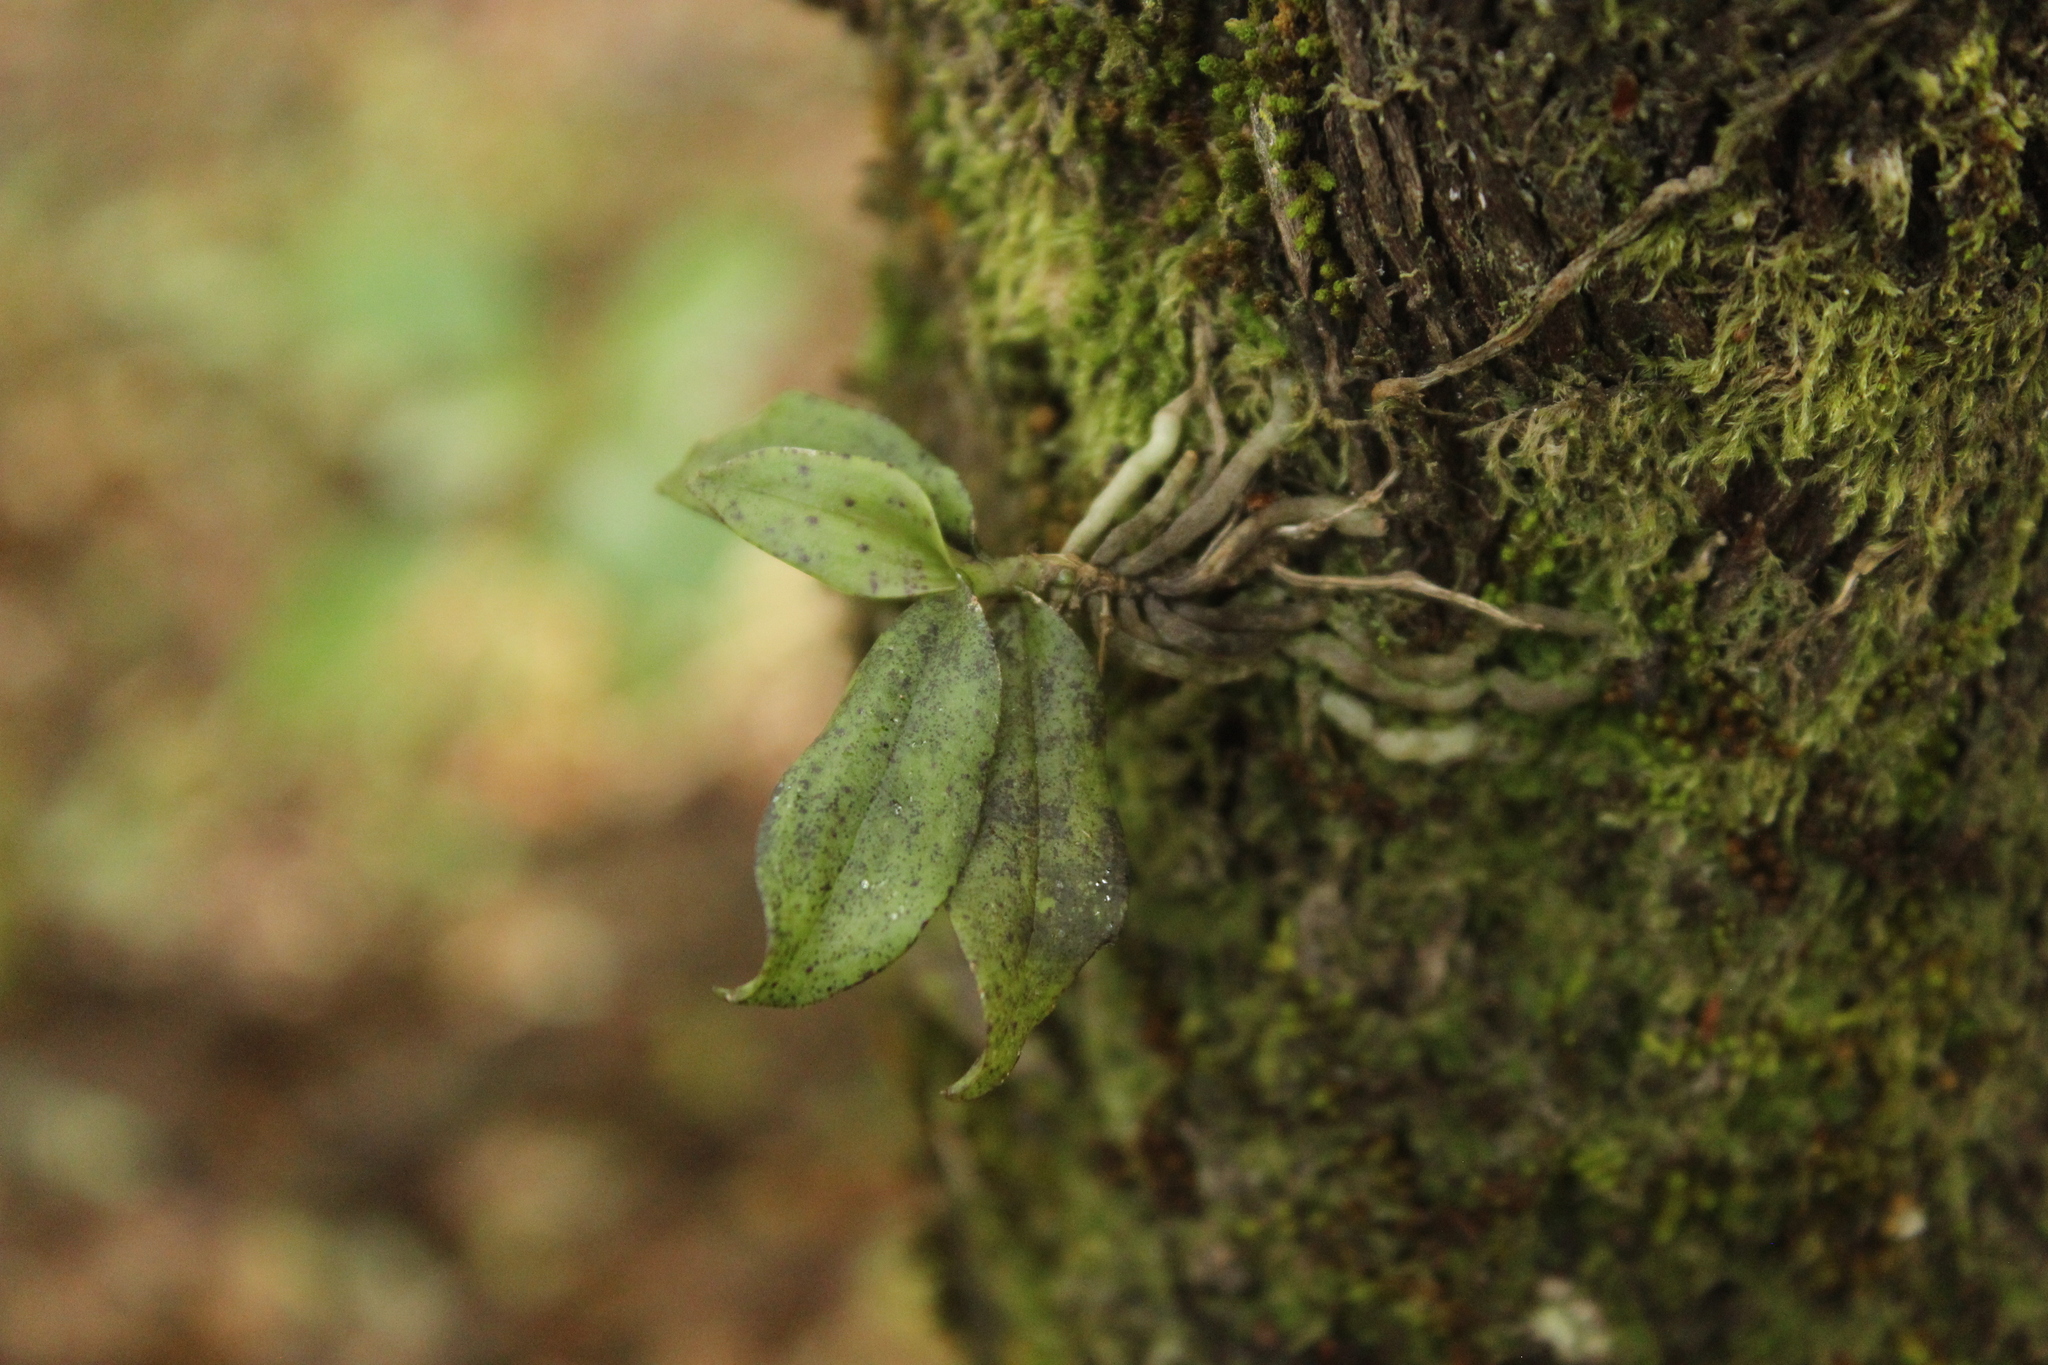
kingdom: Plantae
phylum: Tracheophyta
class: Liliopsida
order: Asparagales
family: Orchidaceae
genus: Drymoanthus
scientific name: Drymoanthus flavus
